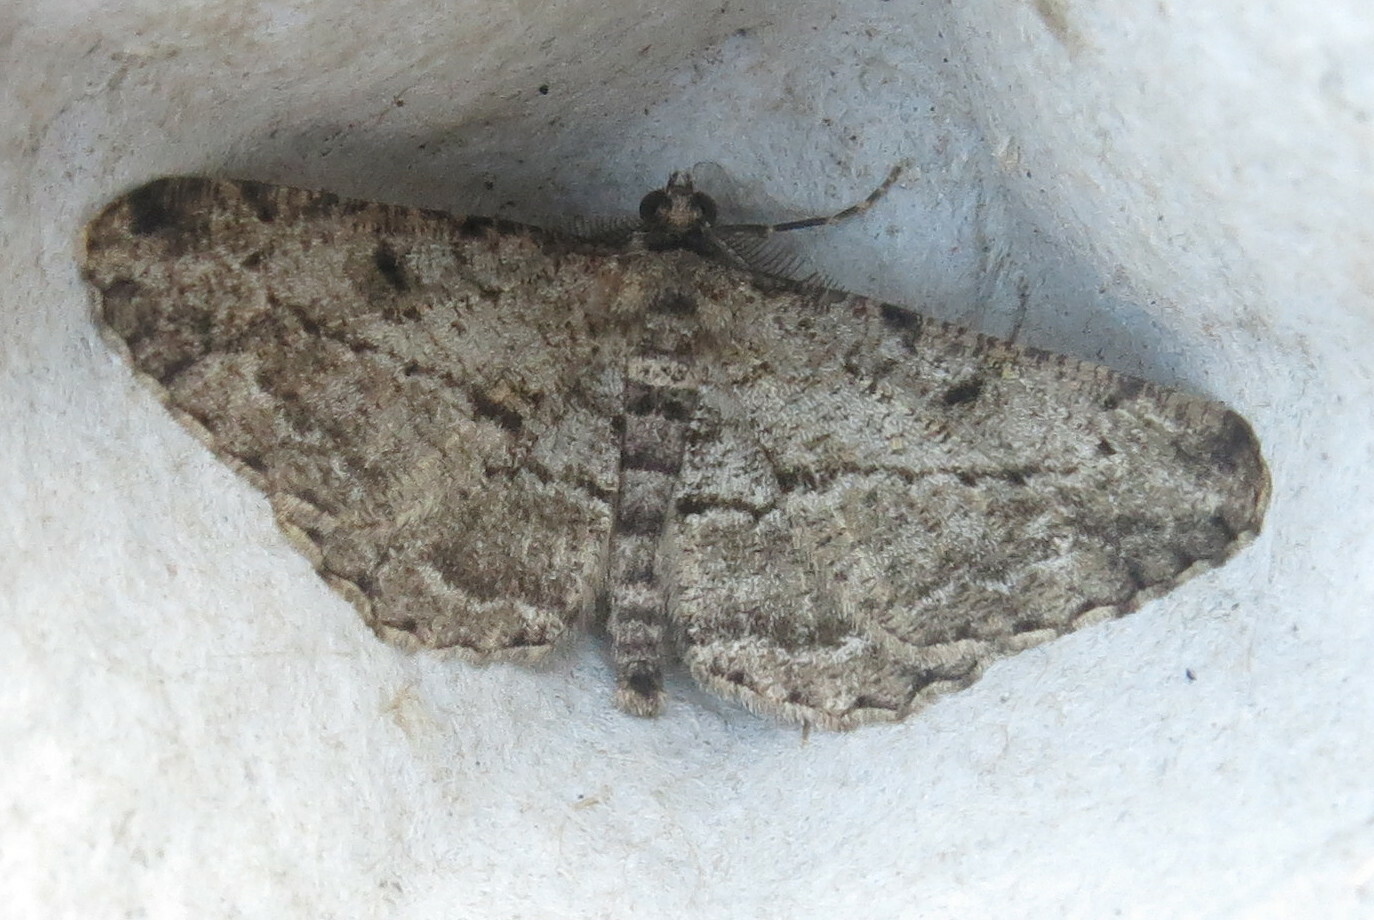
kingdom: Animalia
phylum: Arthropoda
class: Insecta
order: Lepidoptera
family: Geometridae
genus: Peribatodes
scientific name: Peribatodes rhomboidaria
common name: Willow beauty
